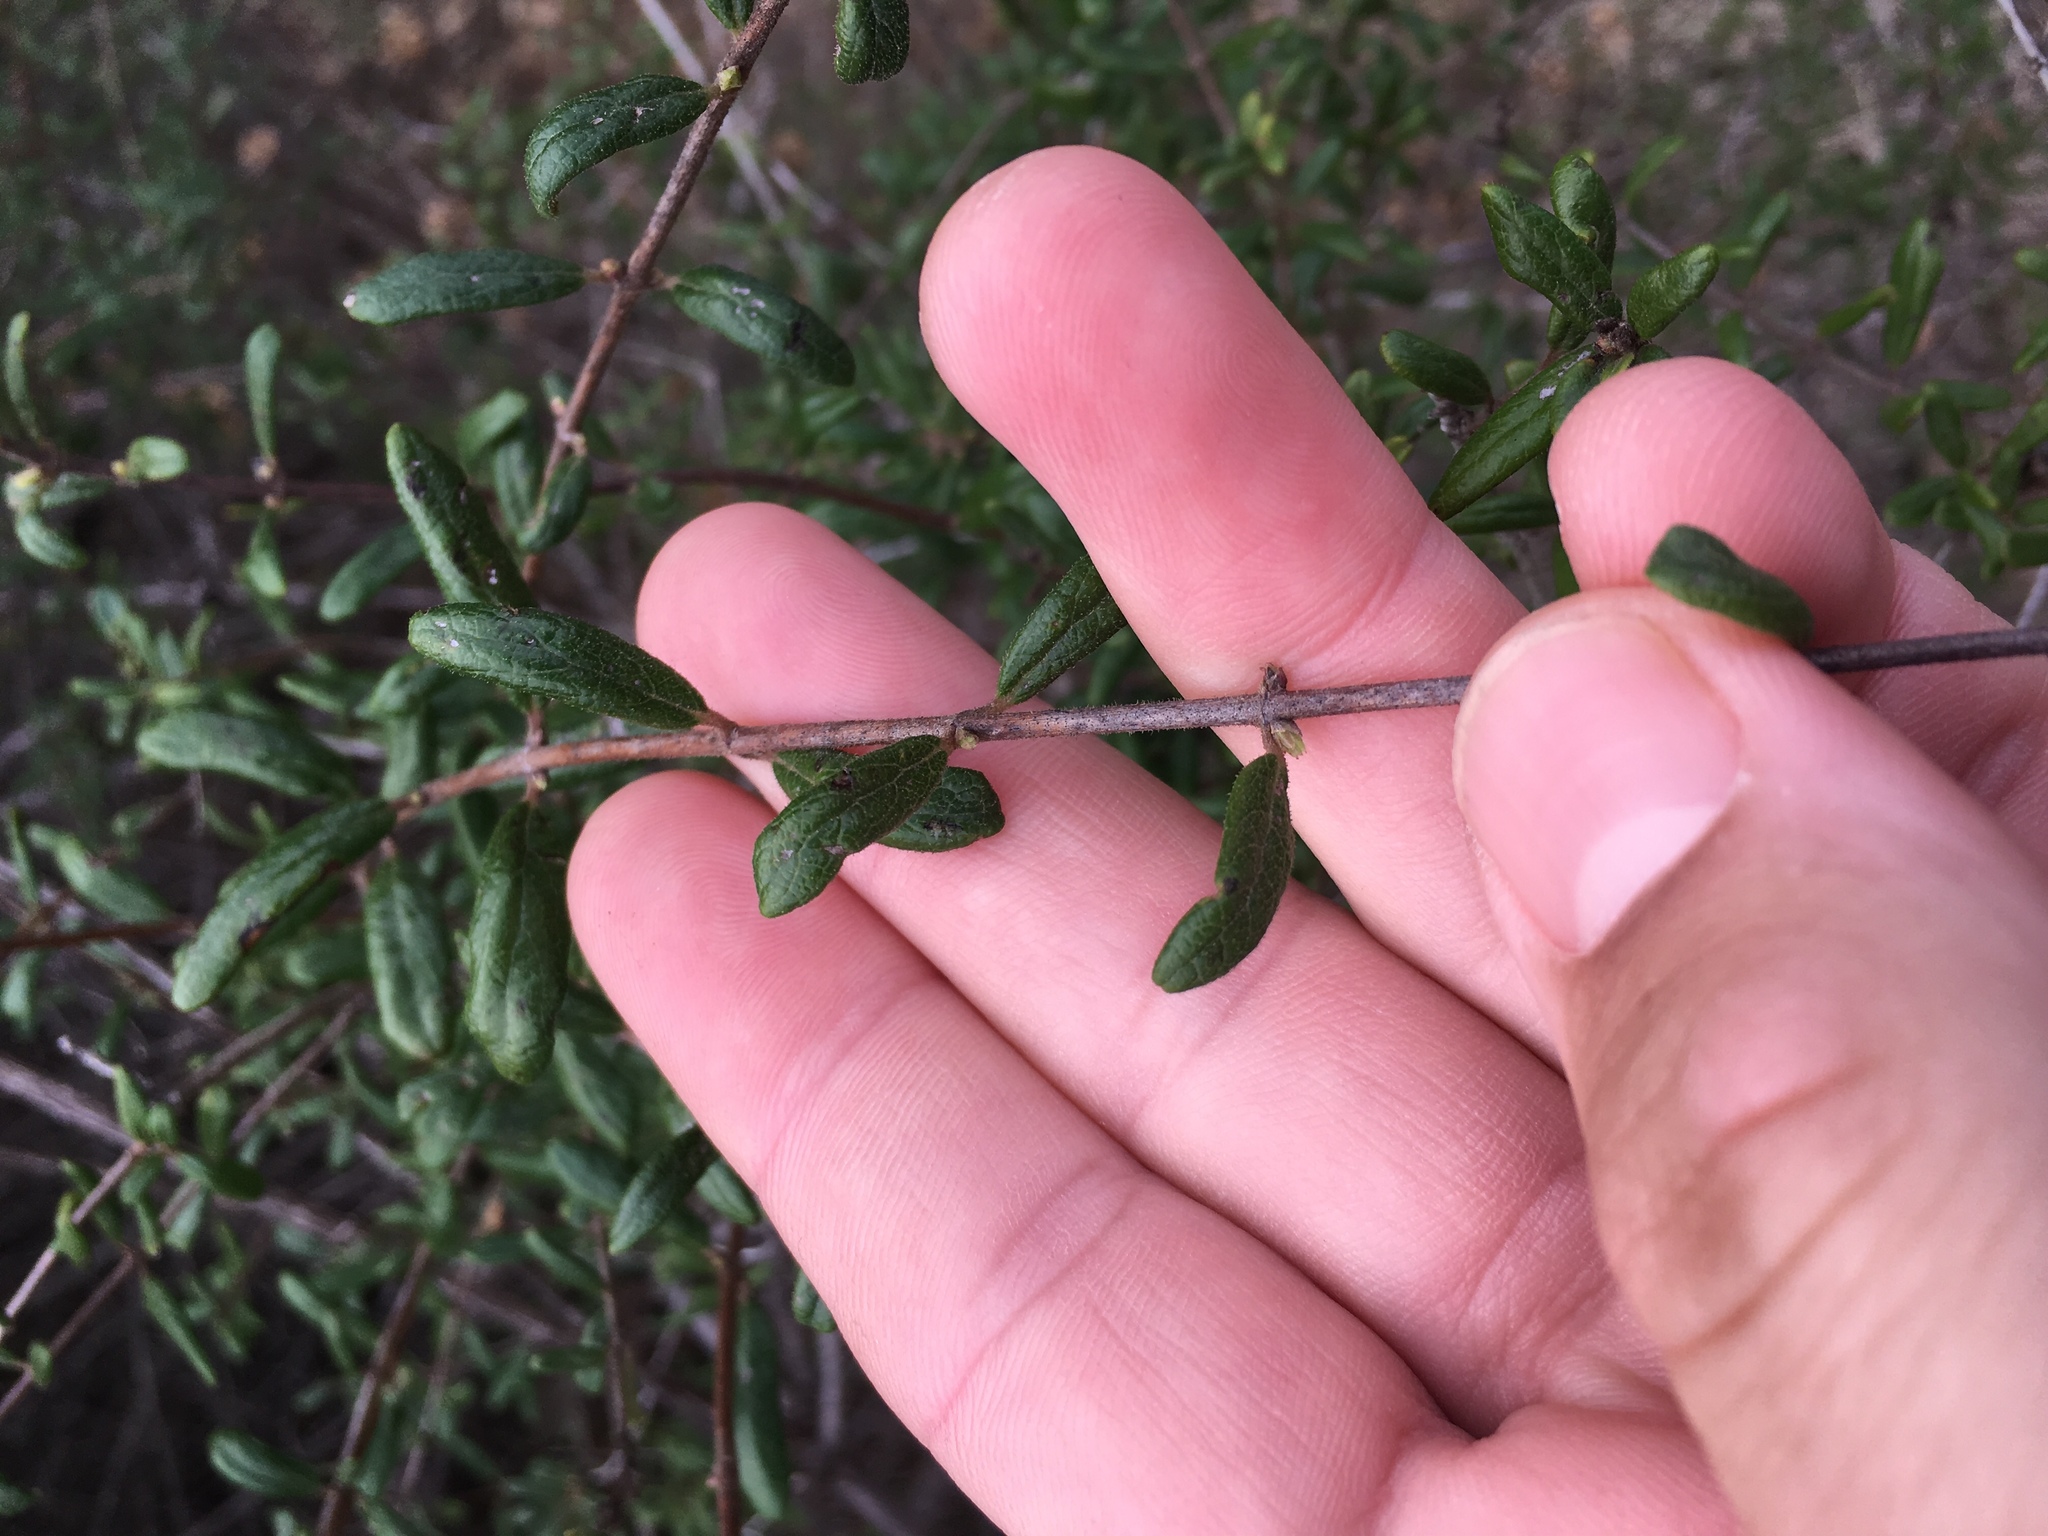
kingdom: Plantae
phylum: Tracheophyta
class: Magnoliopsida
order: Dipsacales
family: Caprifoliaceae
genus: Lonicera
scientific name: Lonicera subspicata
